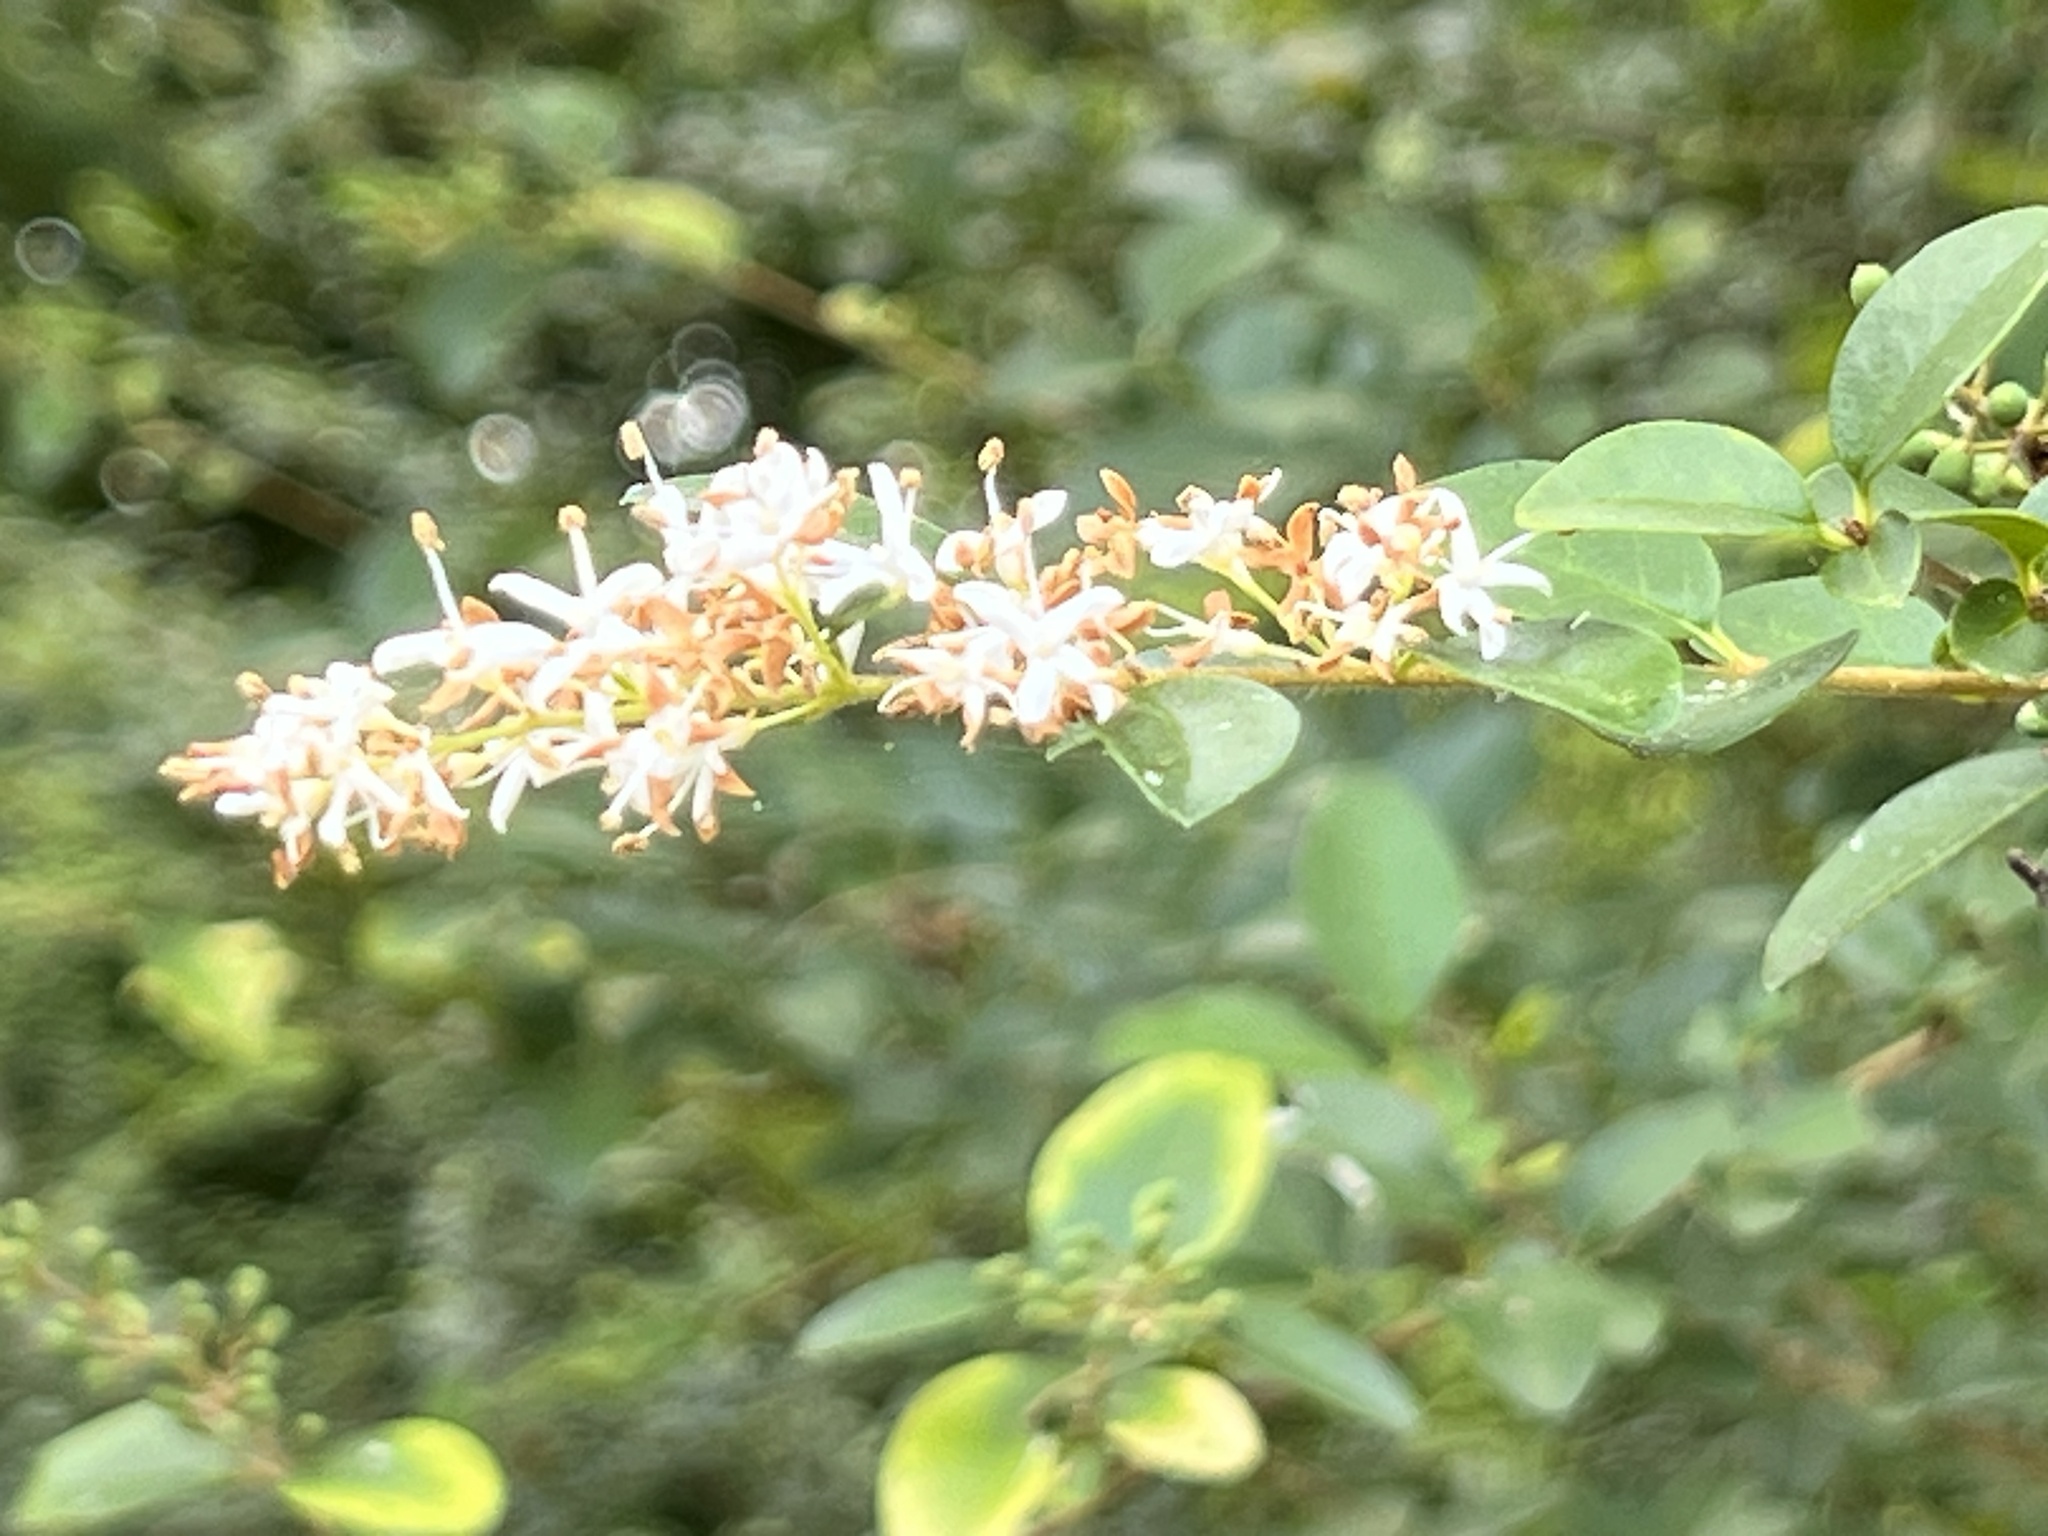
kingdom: Plantae
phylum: Tracheophyta
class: Magnoliopsida
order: Lamiales
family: Oleaceae
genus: Ligustrum
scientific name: Ligustrum sinense
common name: Chinese privet
